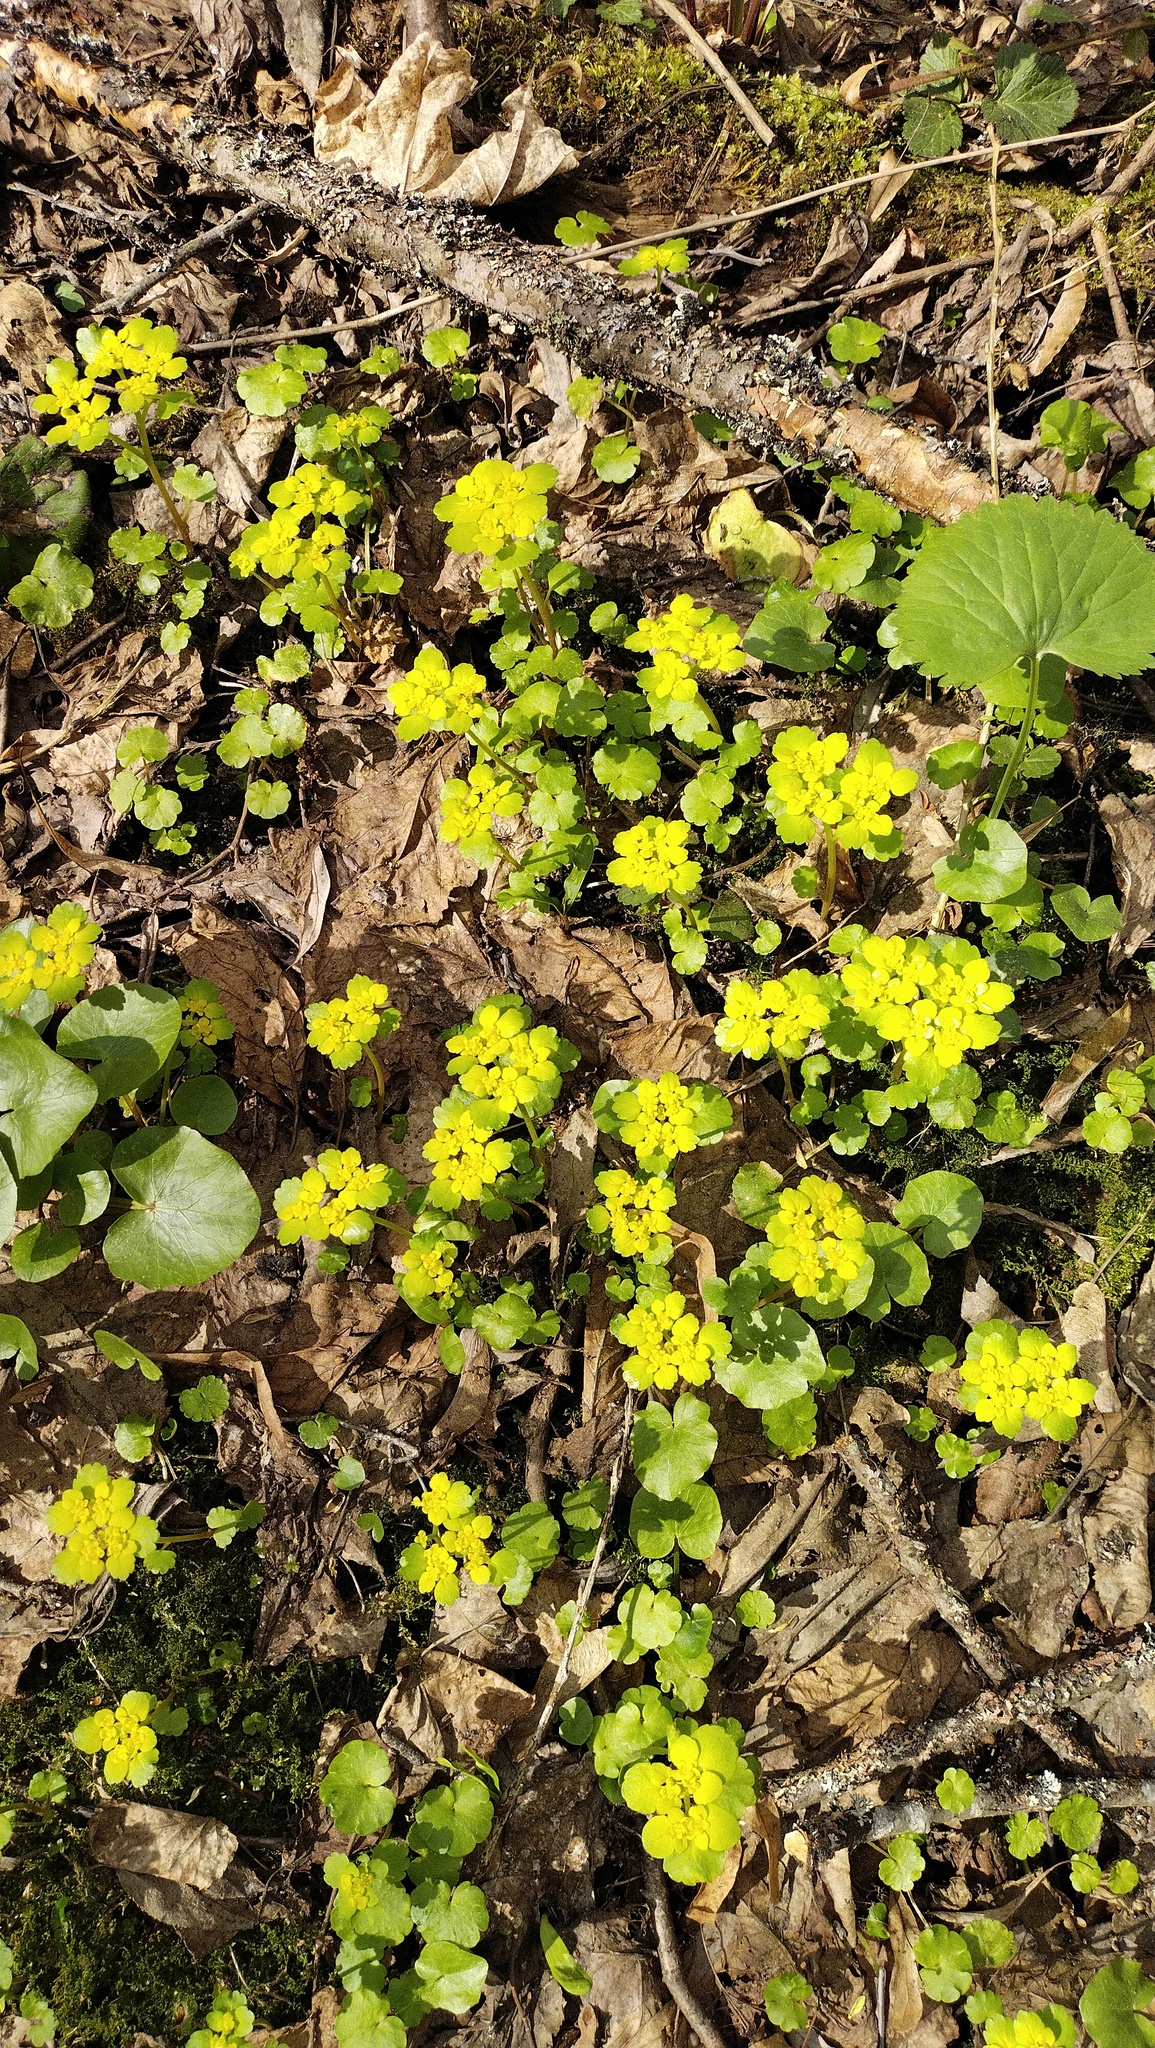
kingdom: Plantae
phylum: Tracheophyta
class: Magnoliopsida
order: Saxifragales
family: Saxifragaceae
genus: Chrysosplenium
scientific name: Chrysosplenium alternifolium
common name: Alternate-leaved golden-saxifrage
